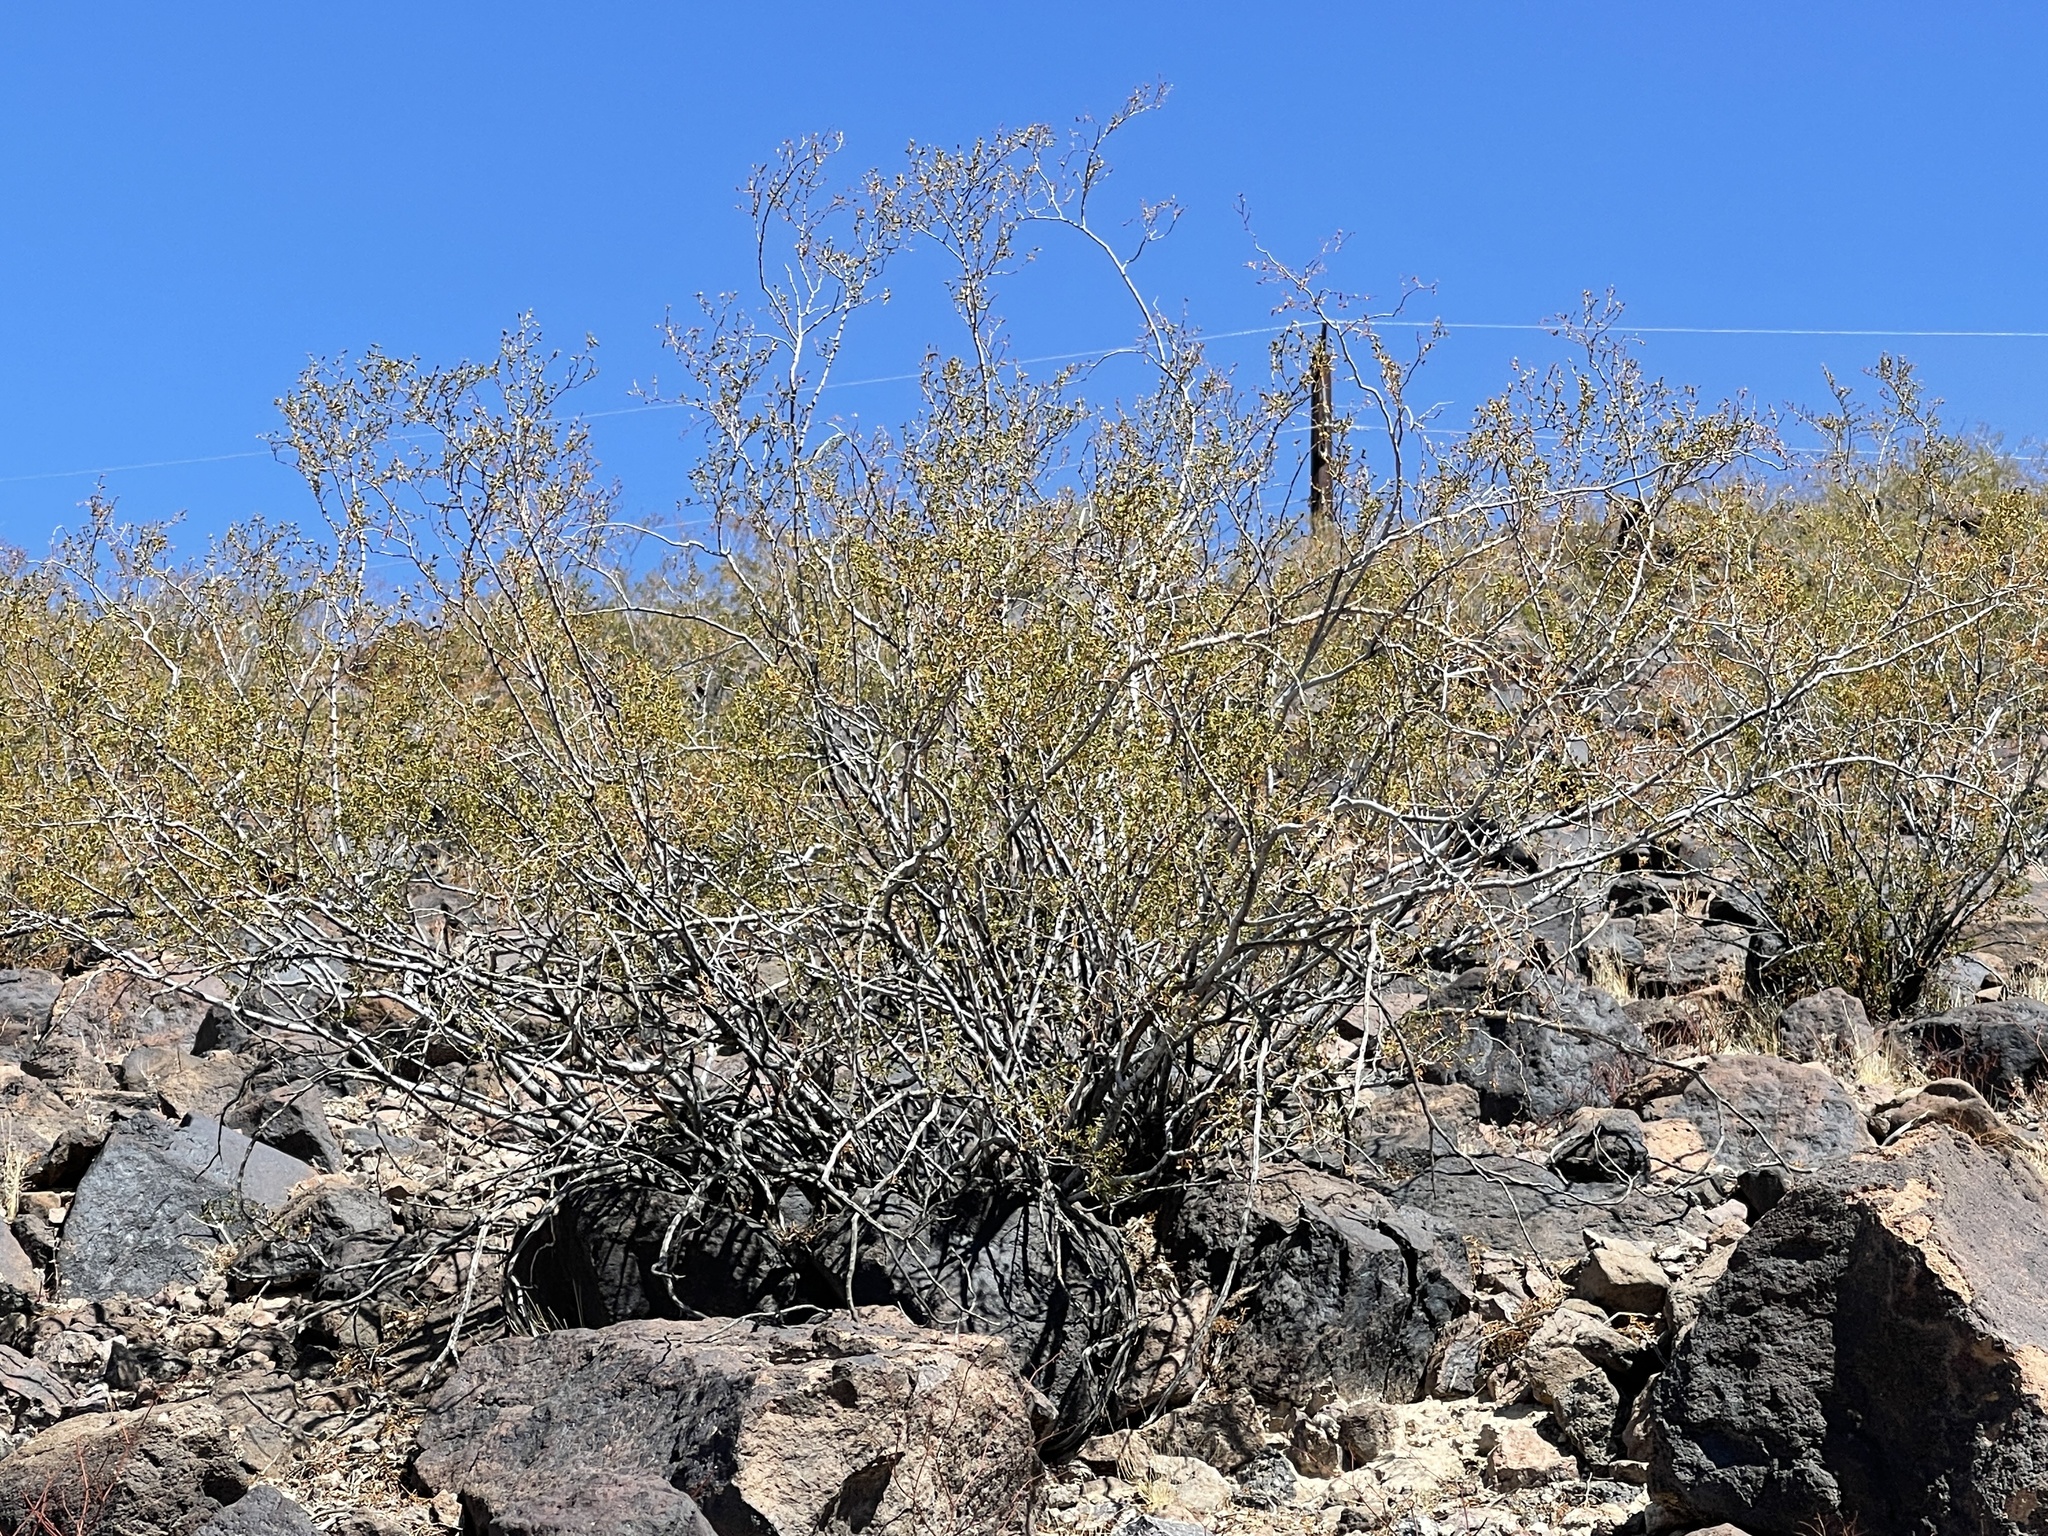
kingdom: Plantae
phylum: Tracheophyta
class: Magnoliopsida
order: Zygophyllales
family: Zygophyllaceae
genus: Larrea
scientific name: Larrea tridentata
